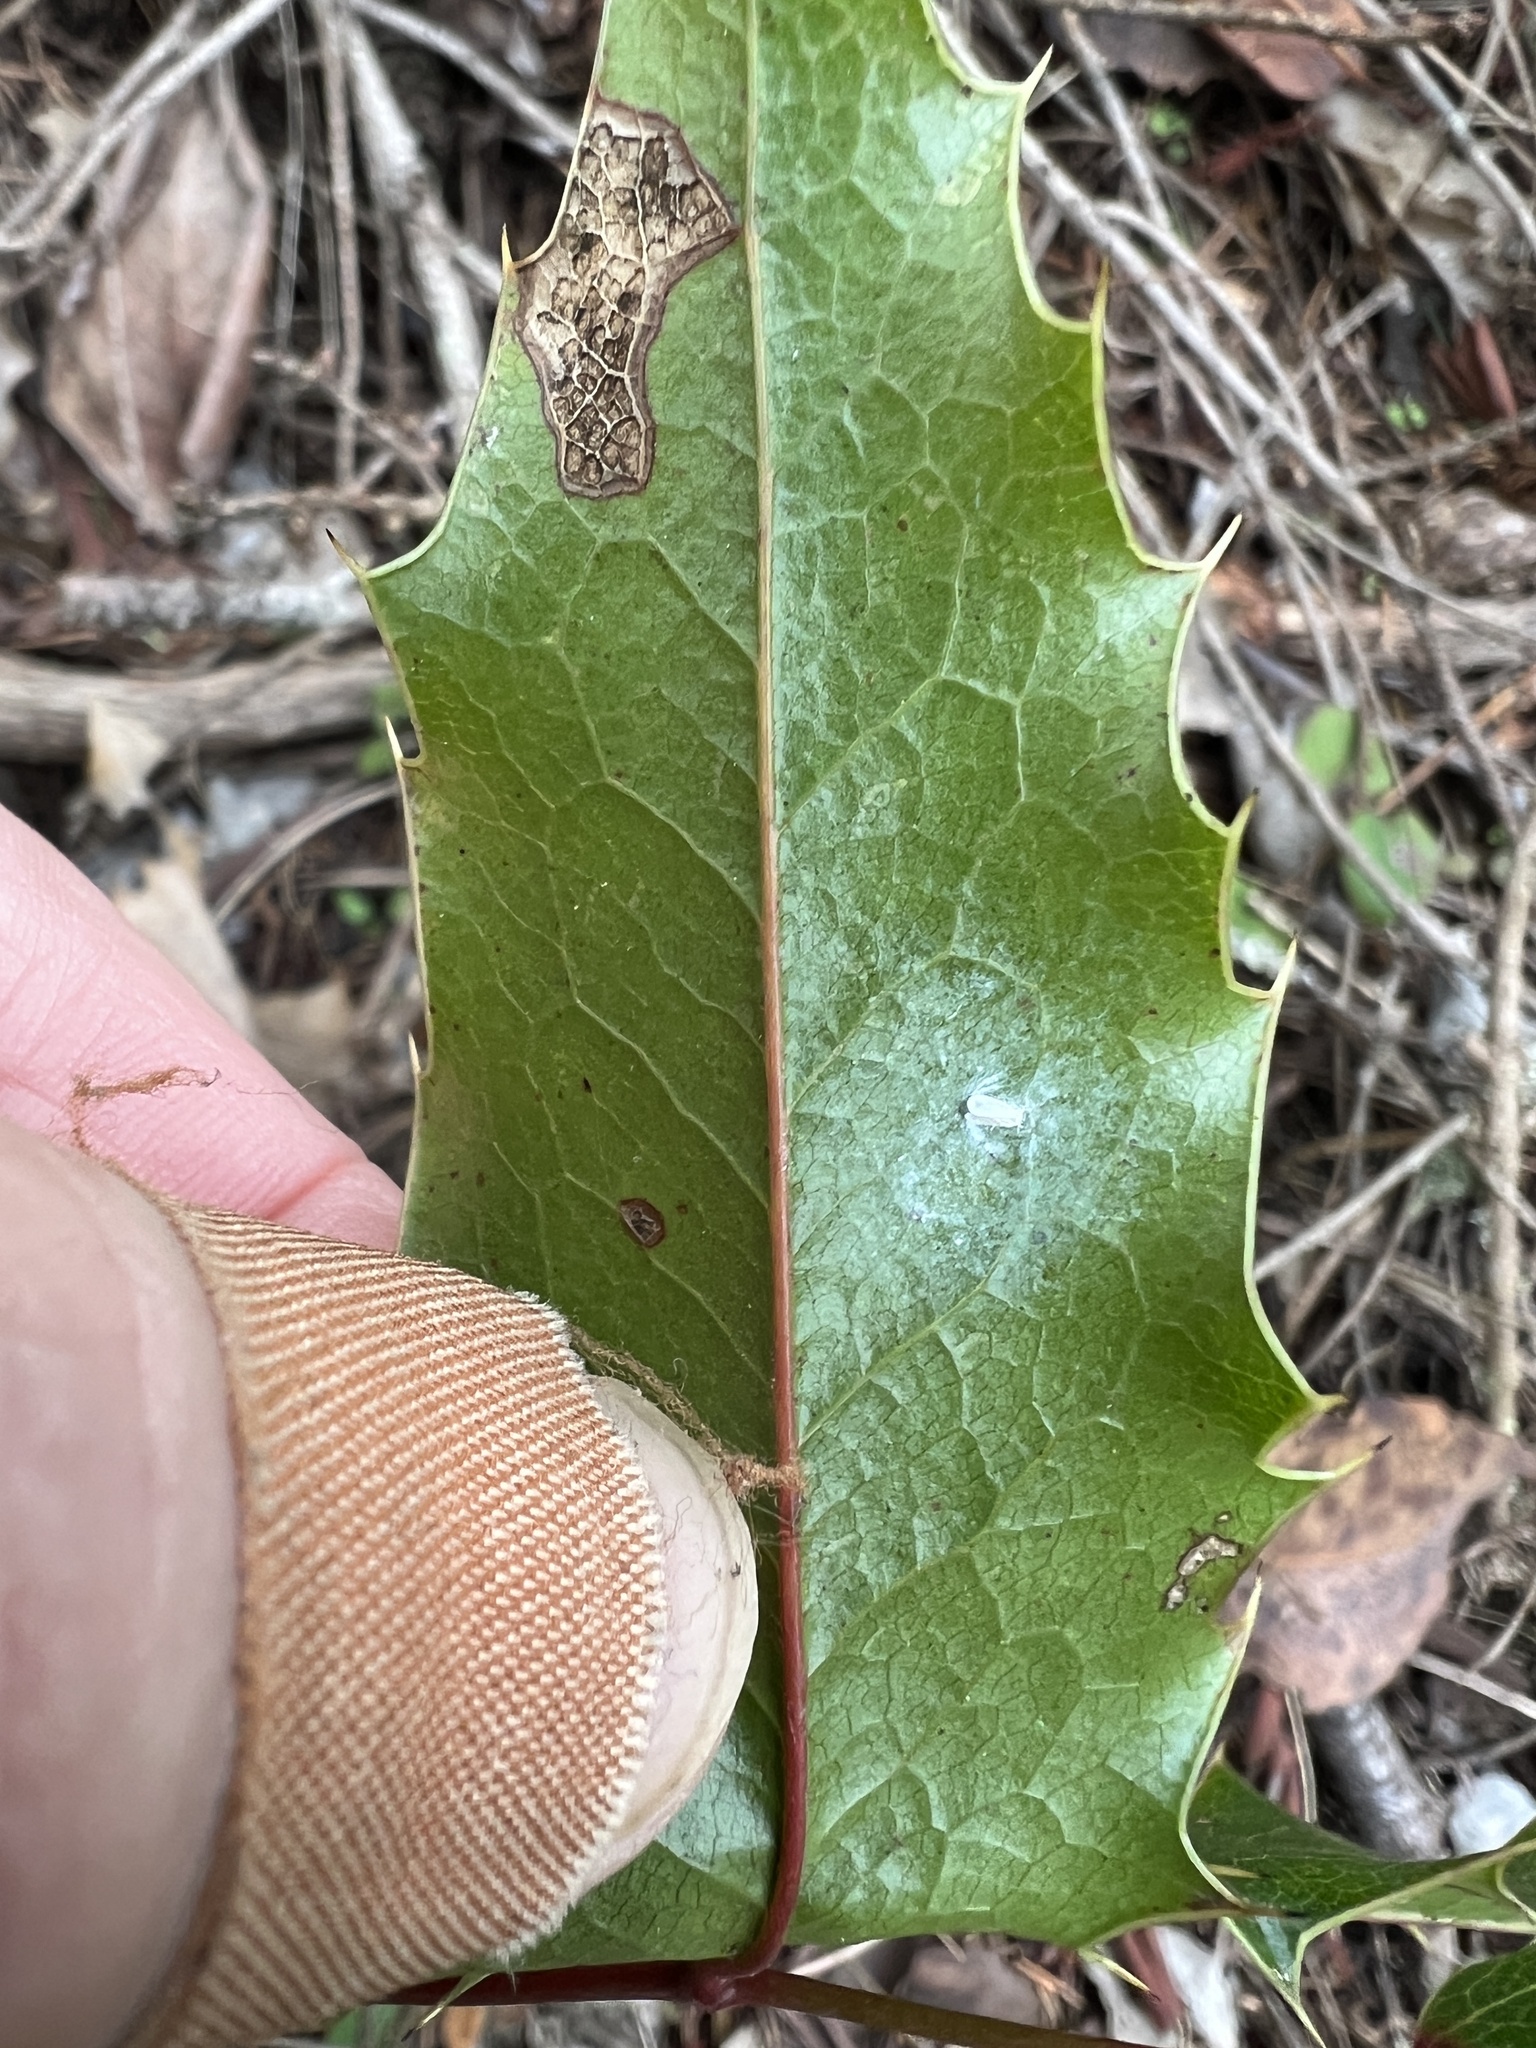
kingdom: Plantae
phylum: Tracheophyta
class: Magnoliopsida
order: Ranunculales
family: Berberidaceae
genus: Mahonia
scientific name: Mahonia aquifolium
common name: Oregon-grape
